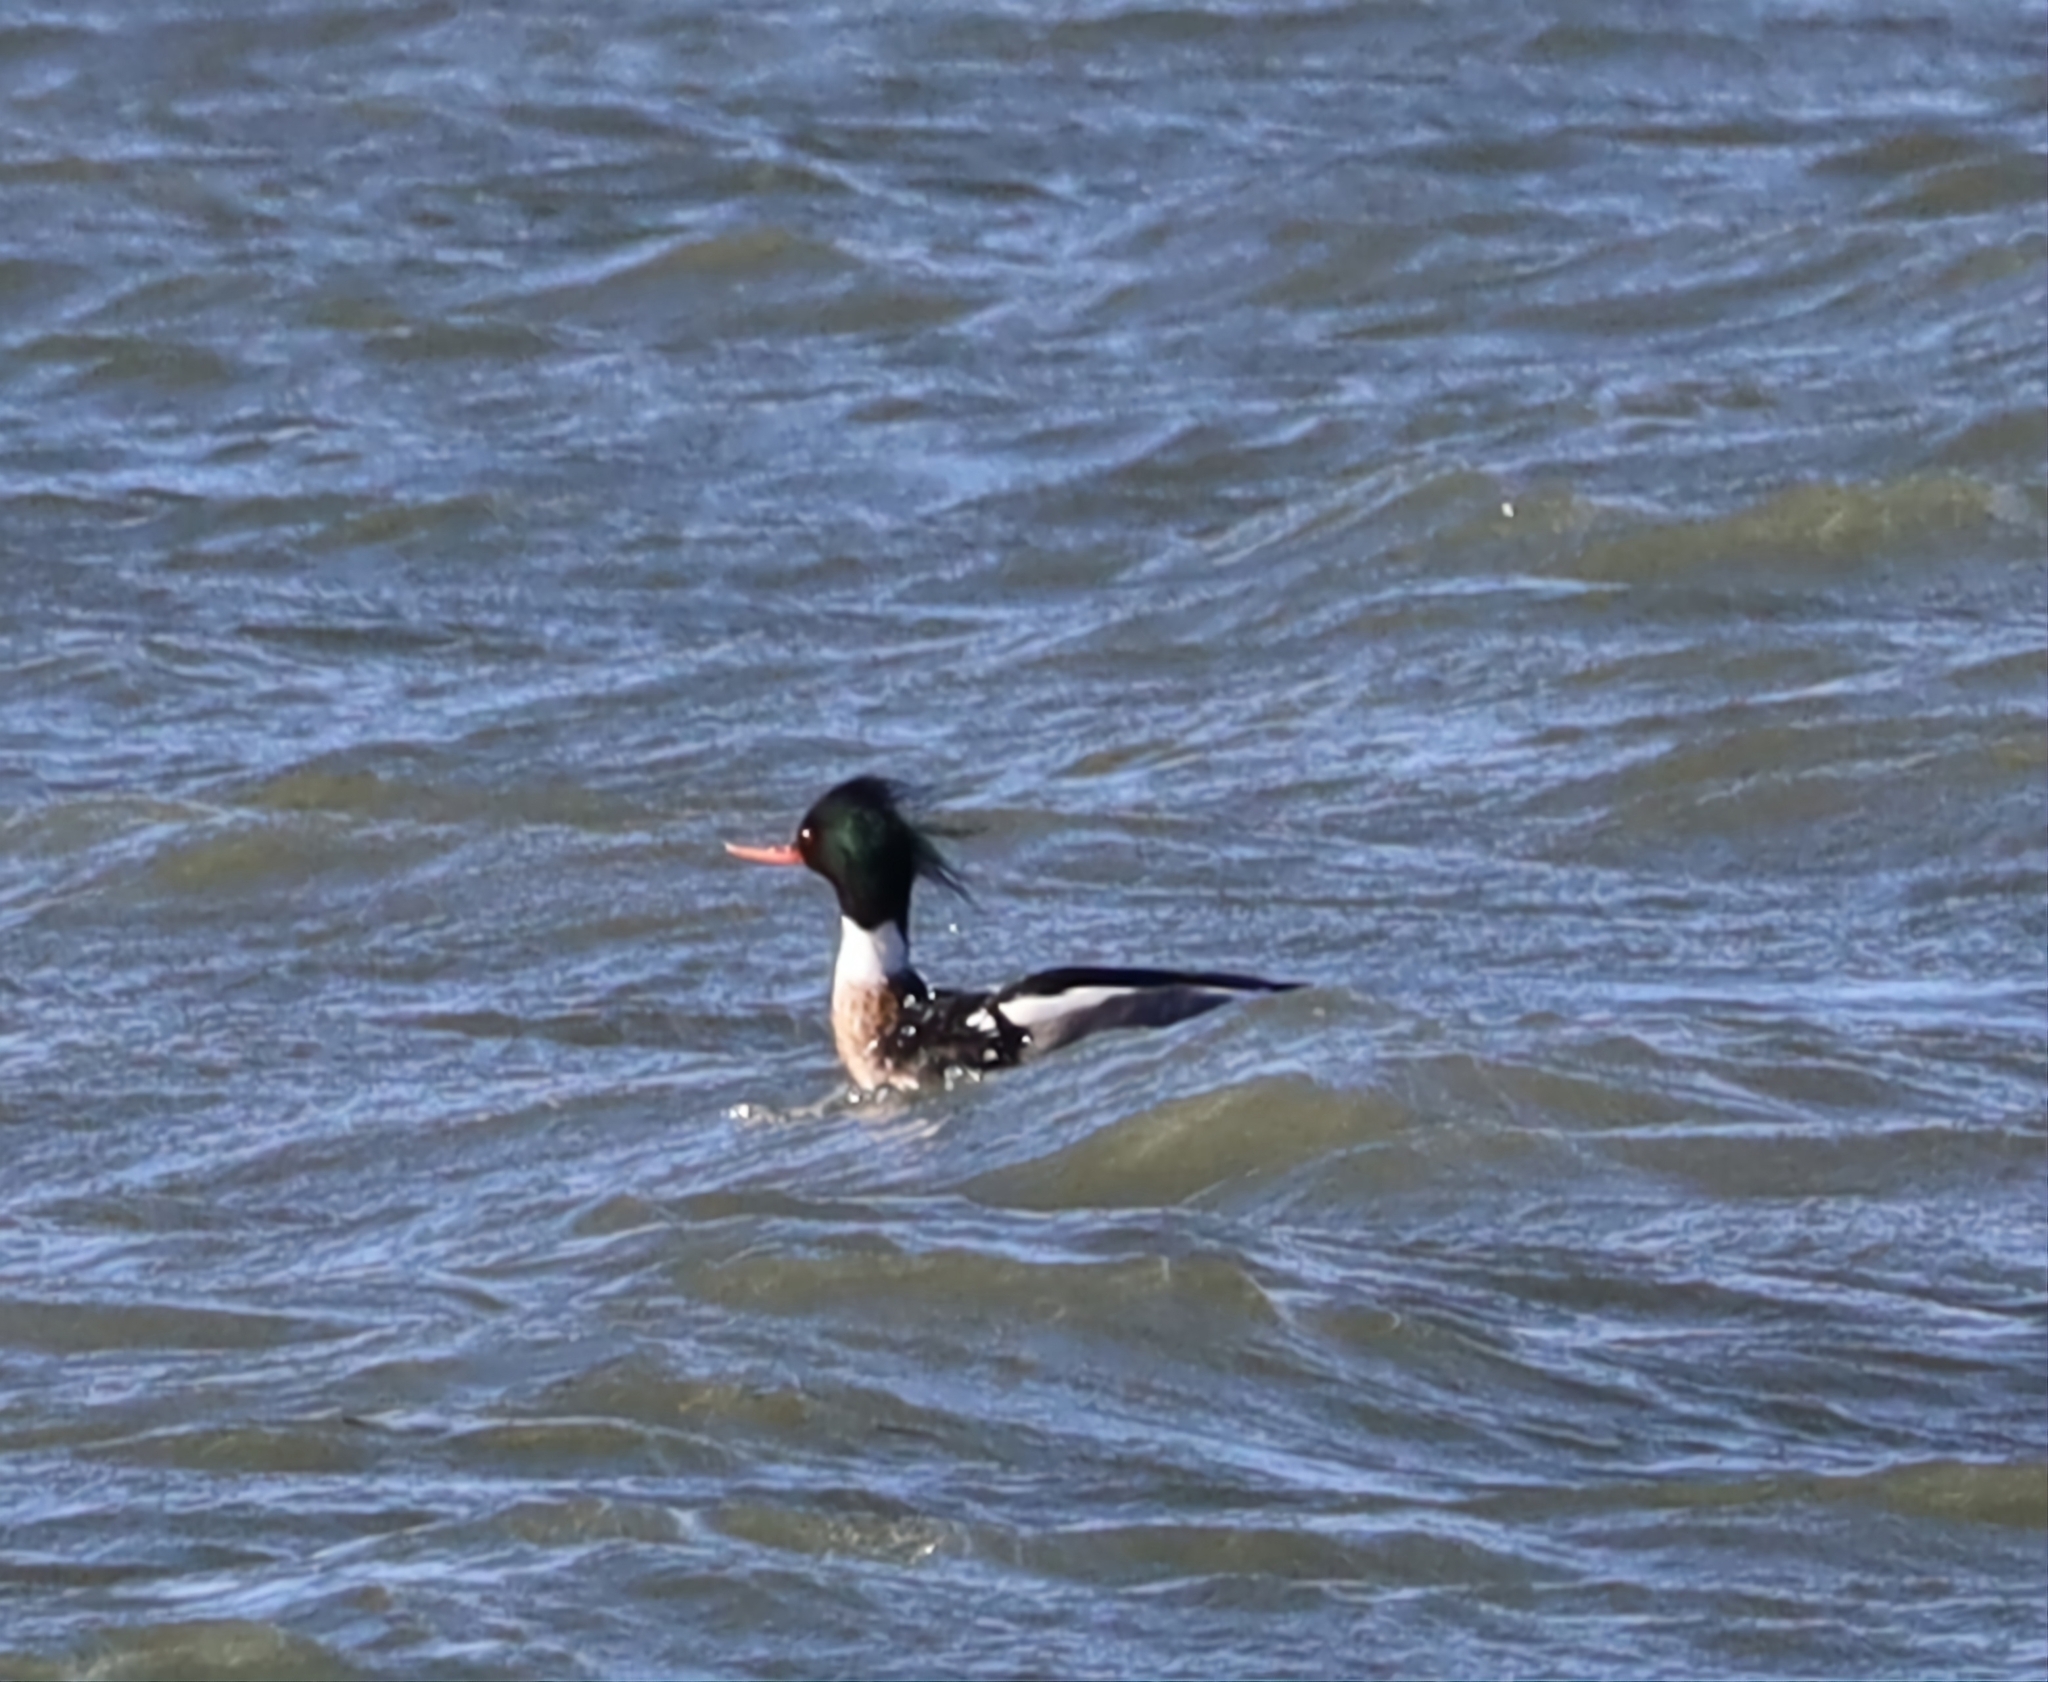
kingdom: Animalia
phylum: Chordata
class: Aves
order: Anseriformes
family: Anatidae
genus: Mergus
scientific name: Mergus serrator
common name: Red-breasted merganser
